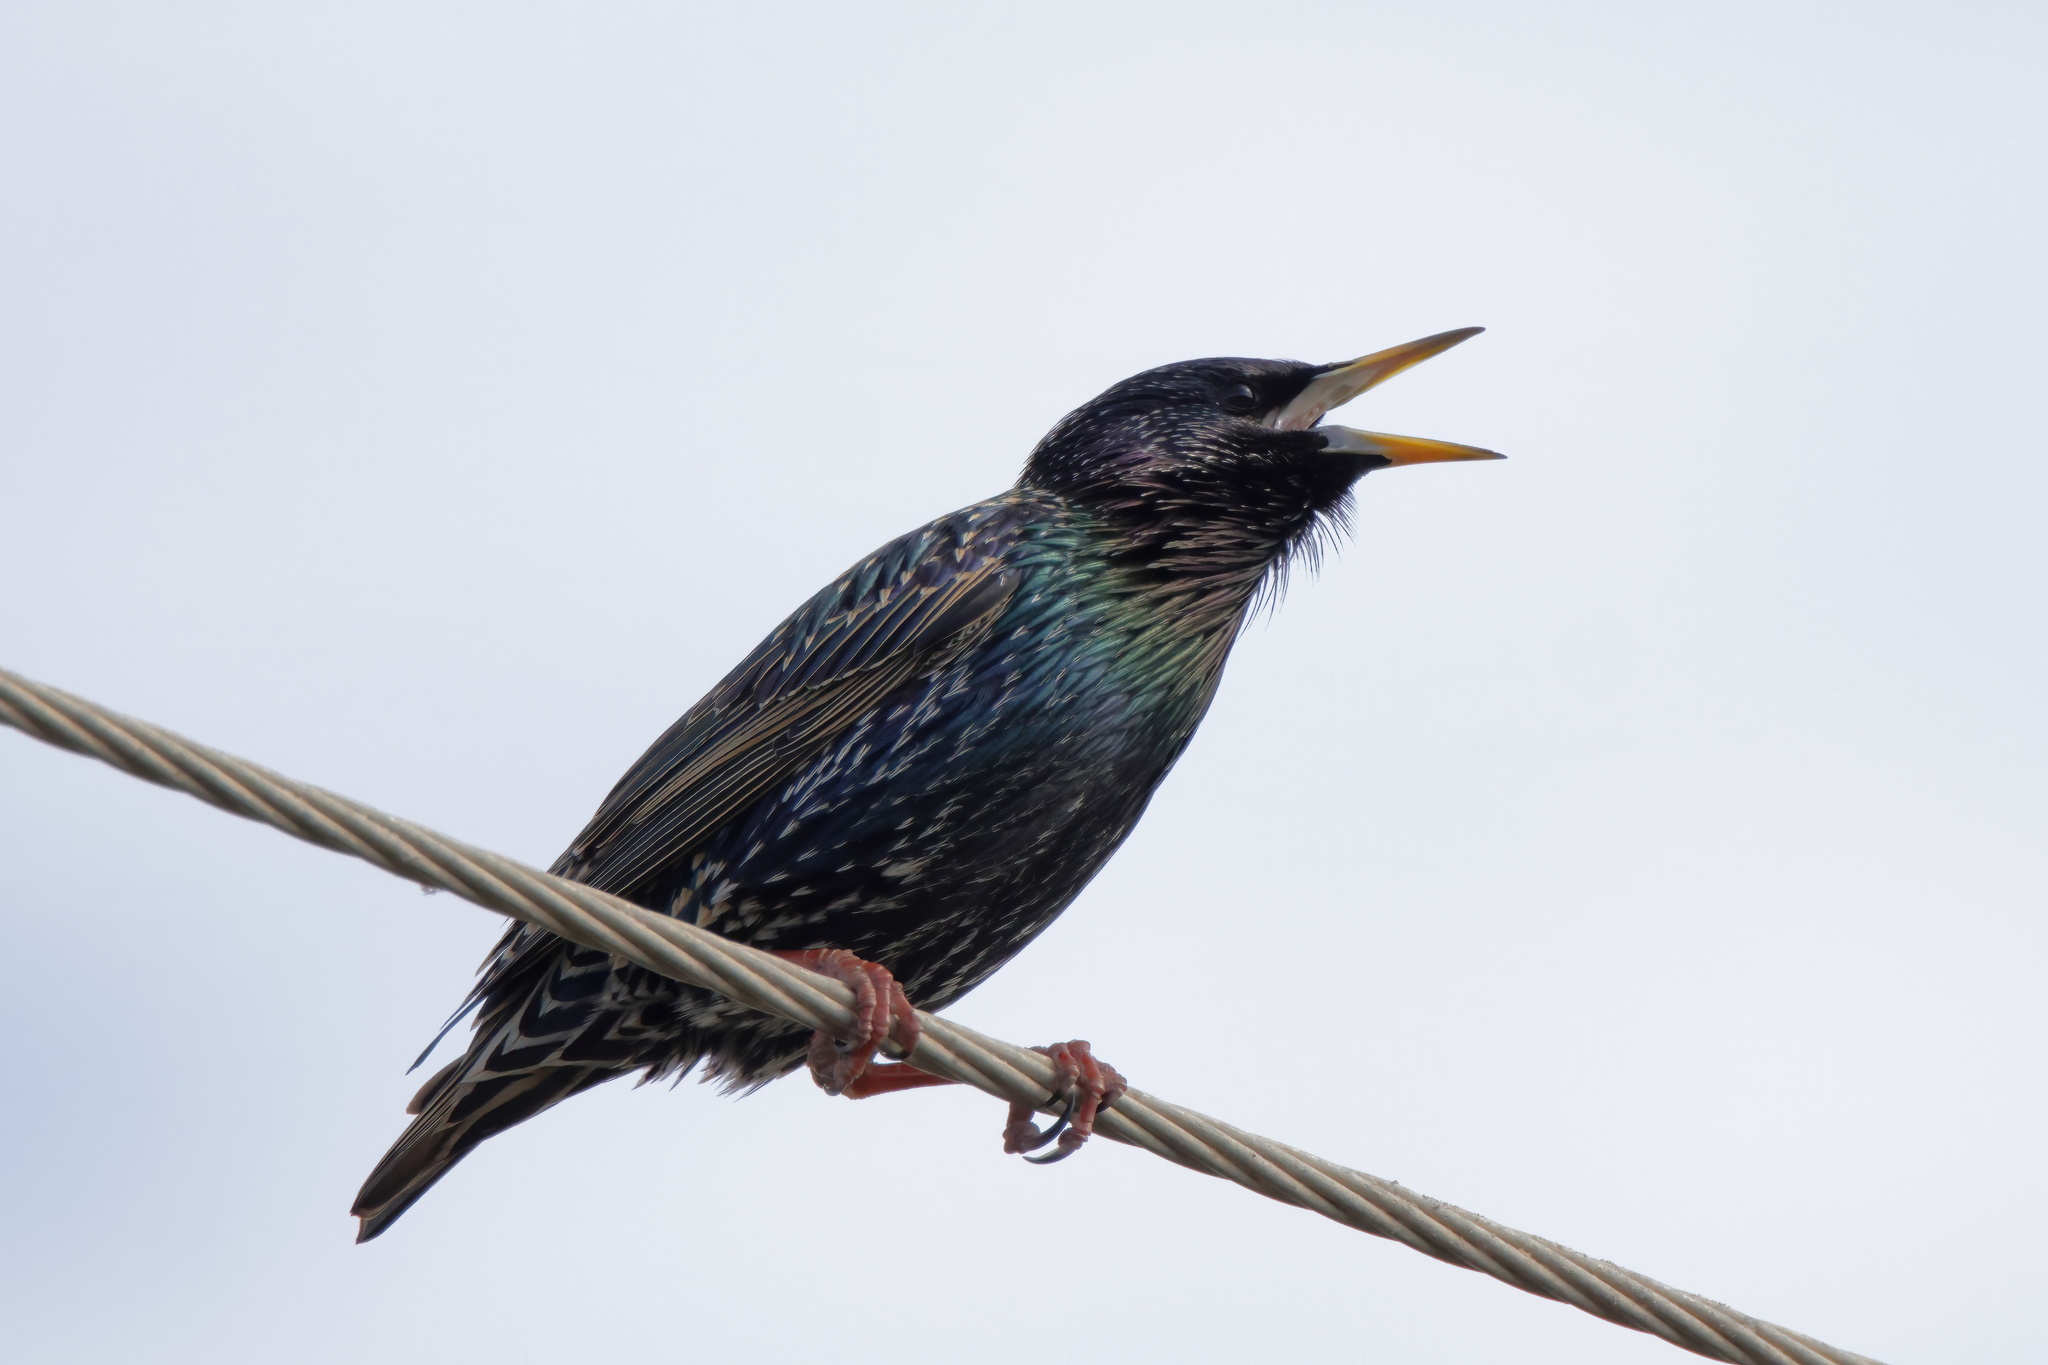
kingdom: Animalia
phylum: Chordata
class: Aves
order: Passeriformes
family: Sturnidae
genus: Sturnus
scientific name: Sturnus vulgaris
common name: Common starling
